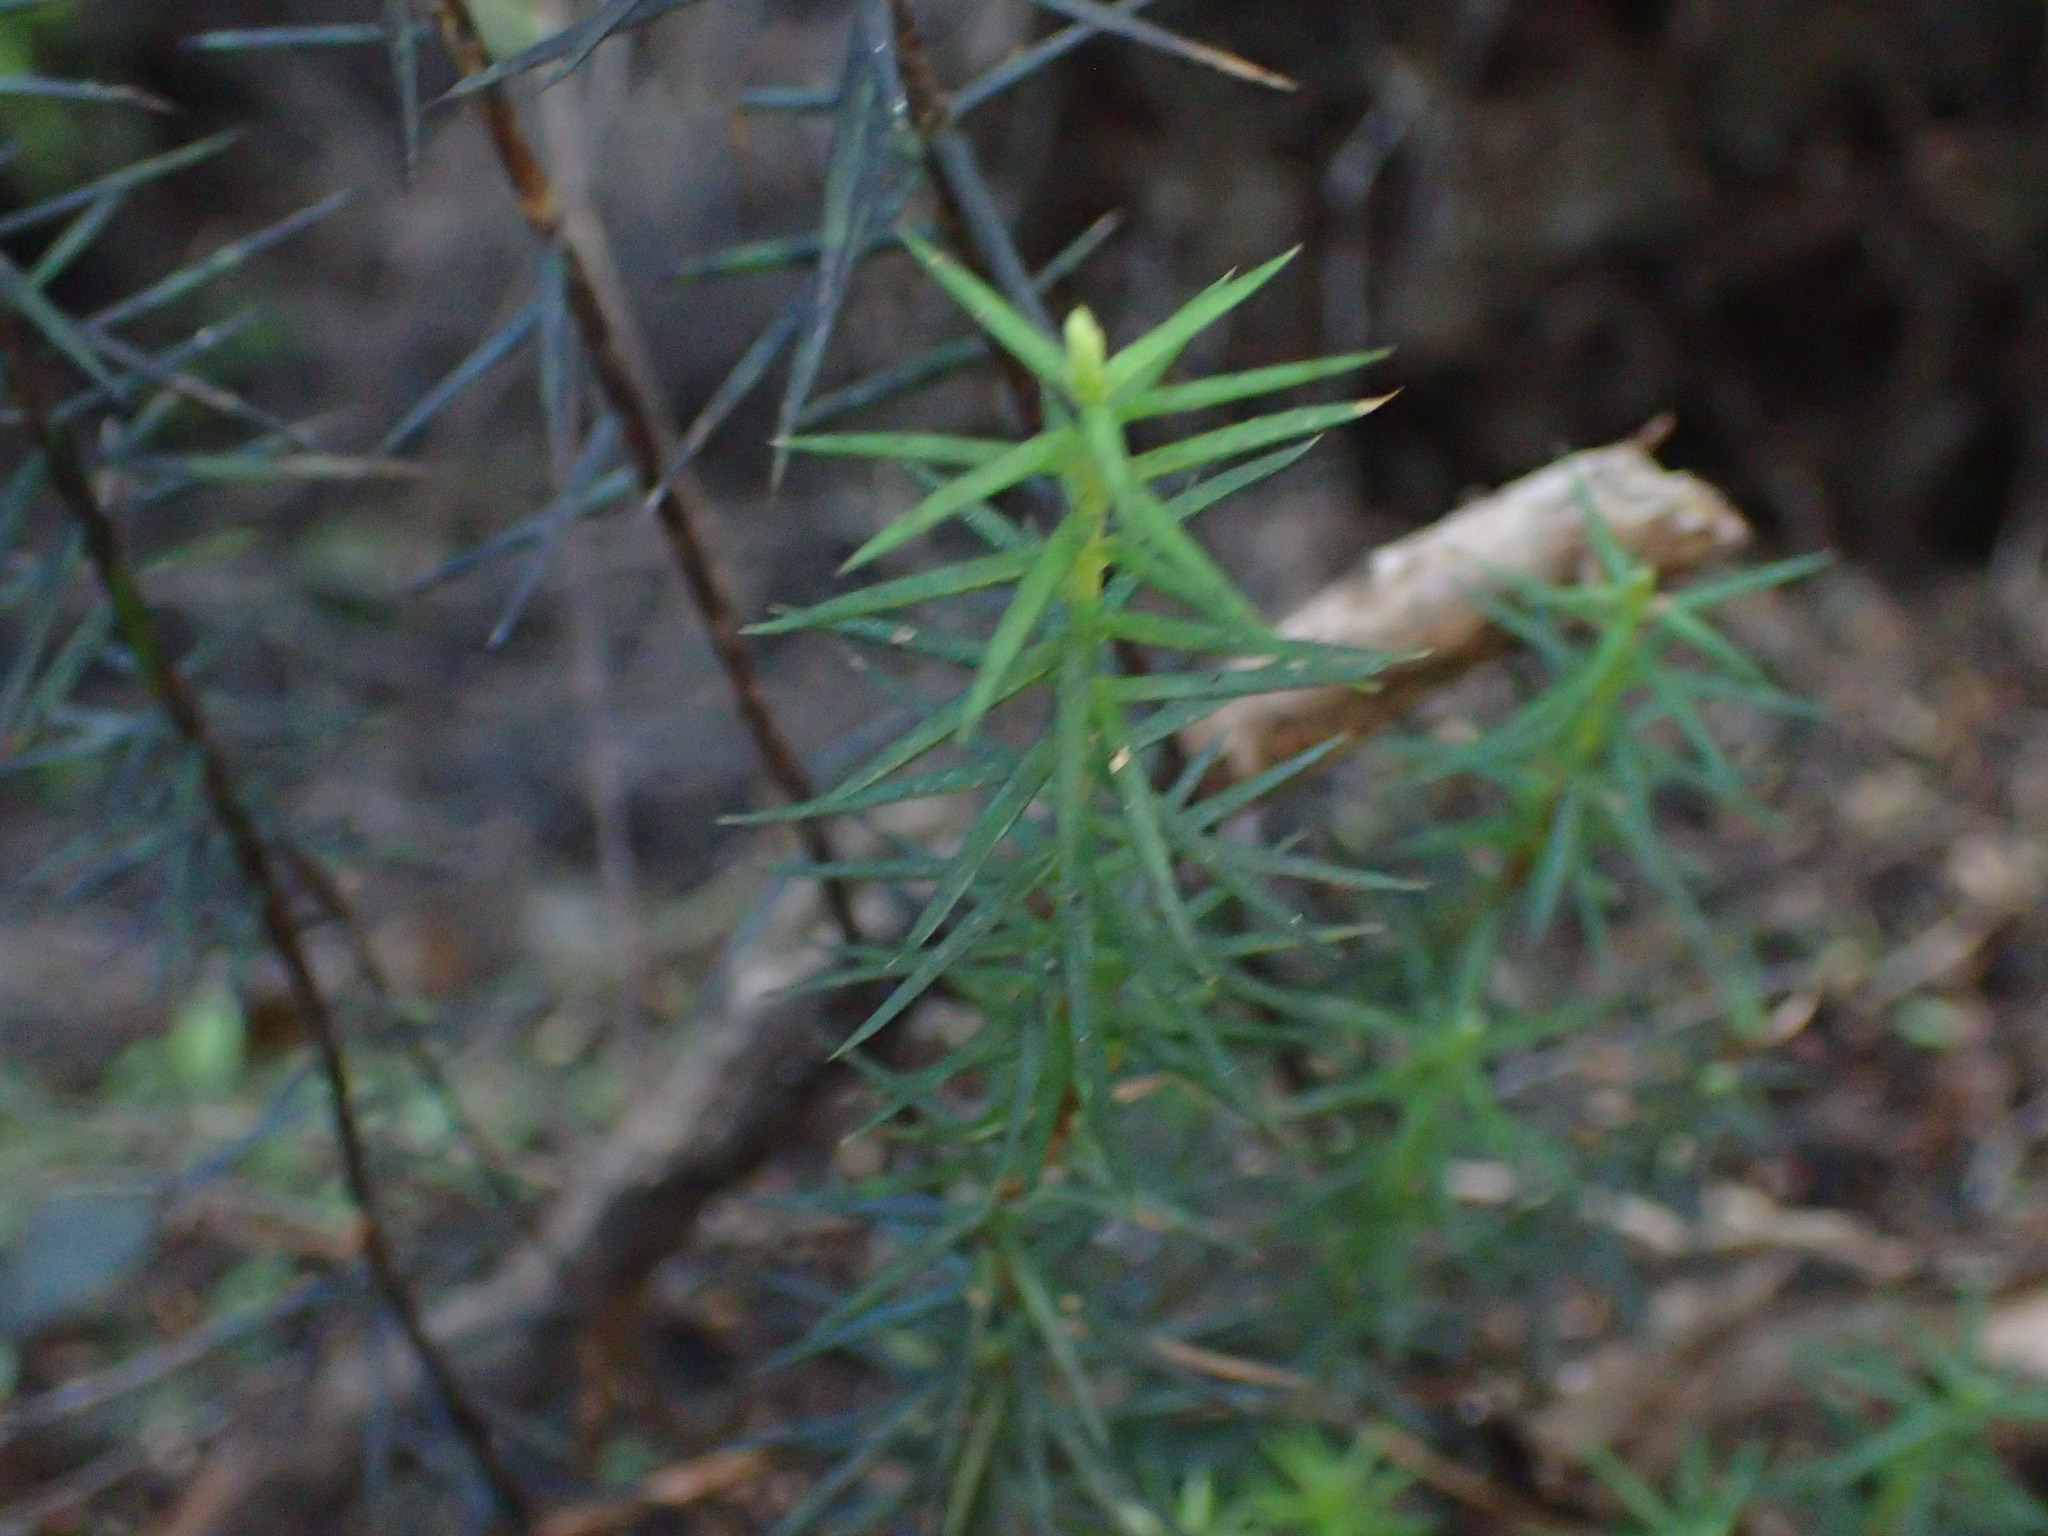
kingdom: Plantae
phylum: Tracheophyta
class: Magnoliopsida
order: Ericales
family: Ericaceae
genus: Leptecophylla
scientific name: Leptecophylla juniperina
